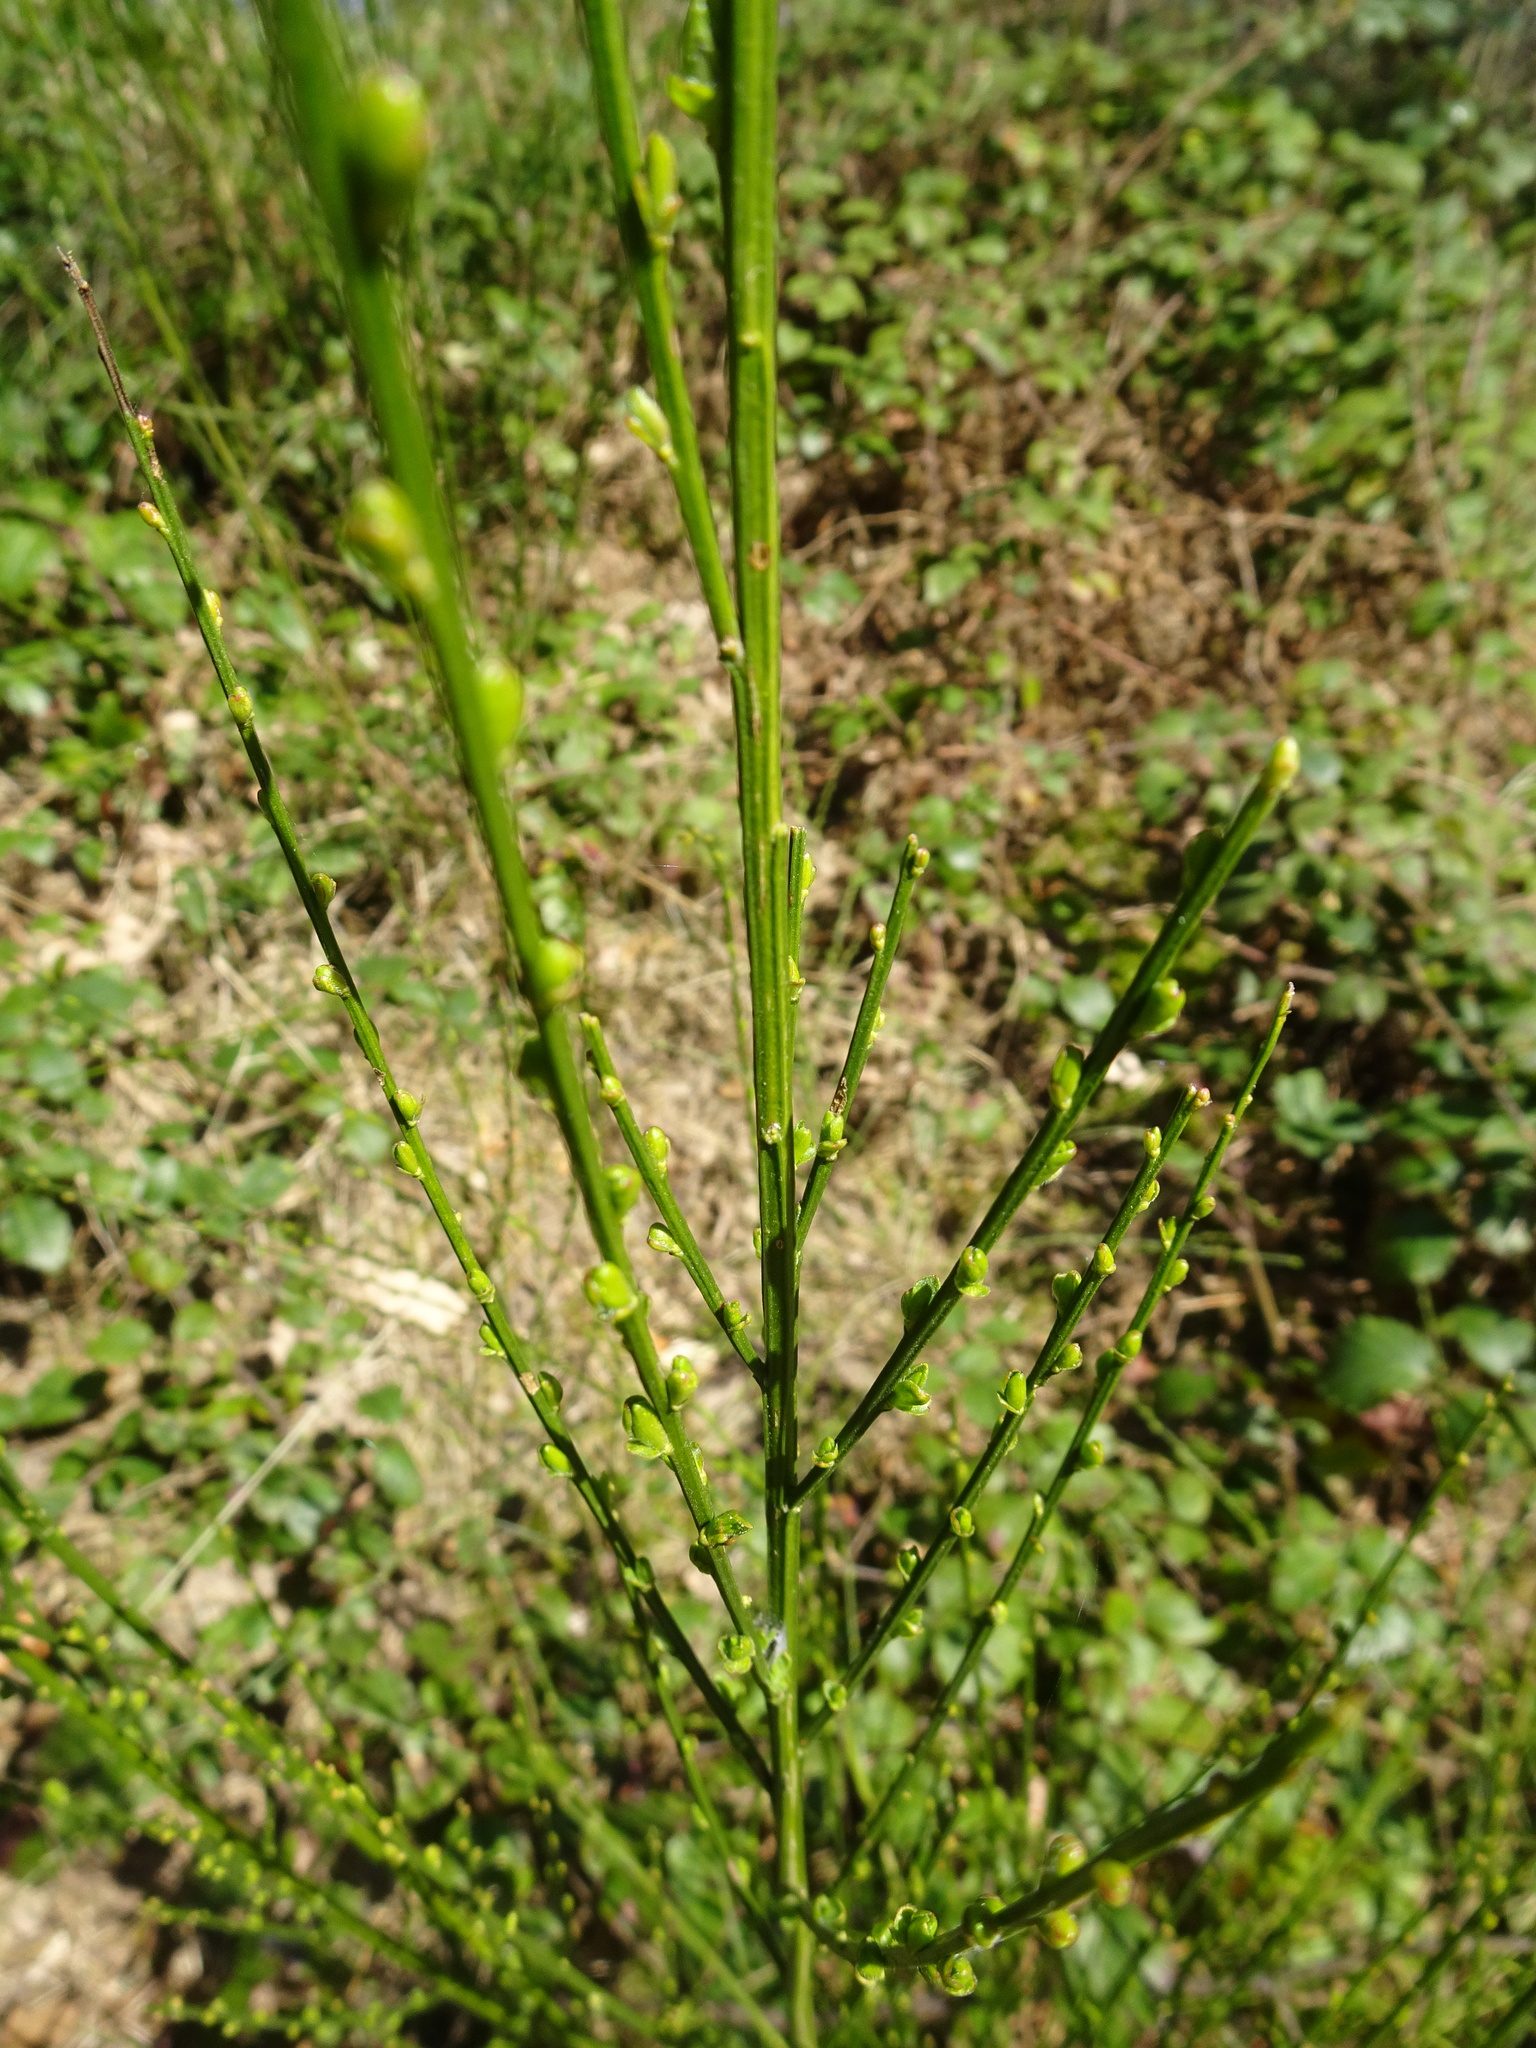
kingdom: Plantae
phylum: Tracheophyta
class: Magnoliopsida
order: Fabales
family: Fabaceae
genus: Cytisus
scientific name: Cytisus scoparius
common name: Scotch broom
